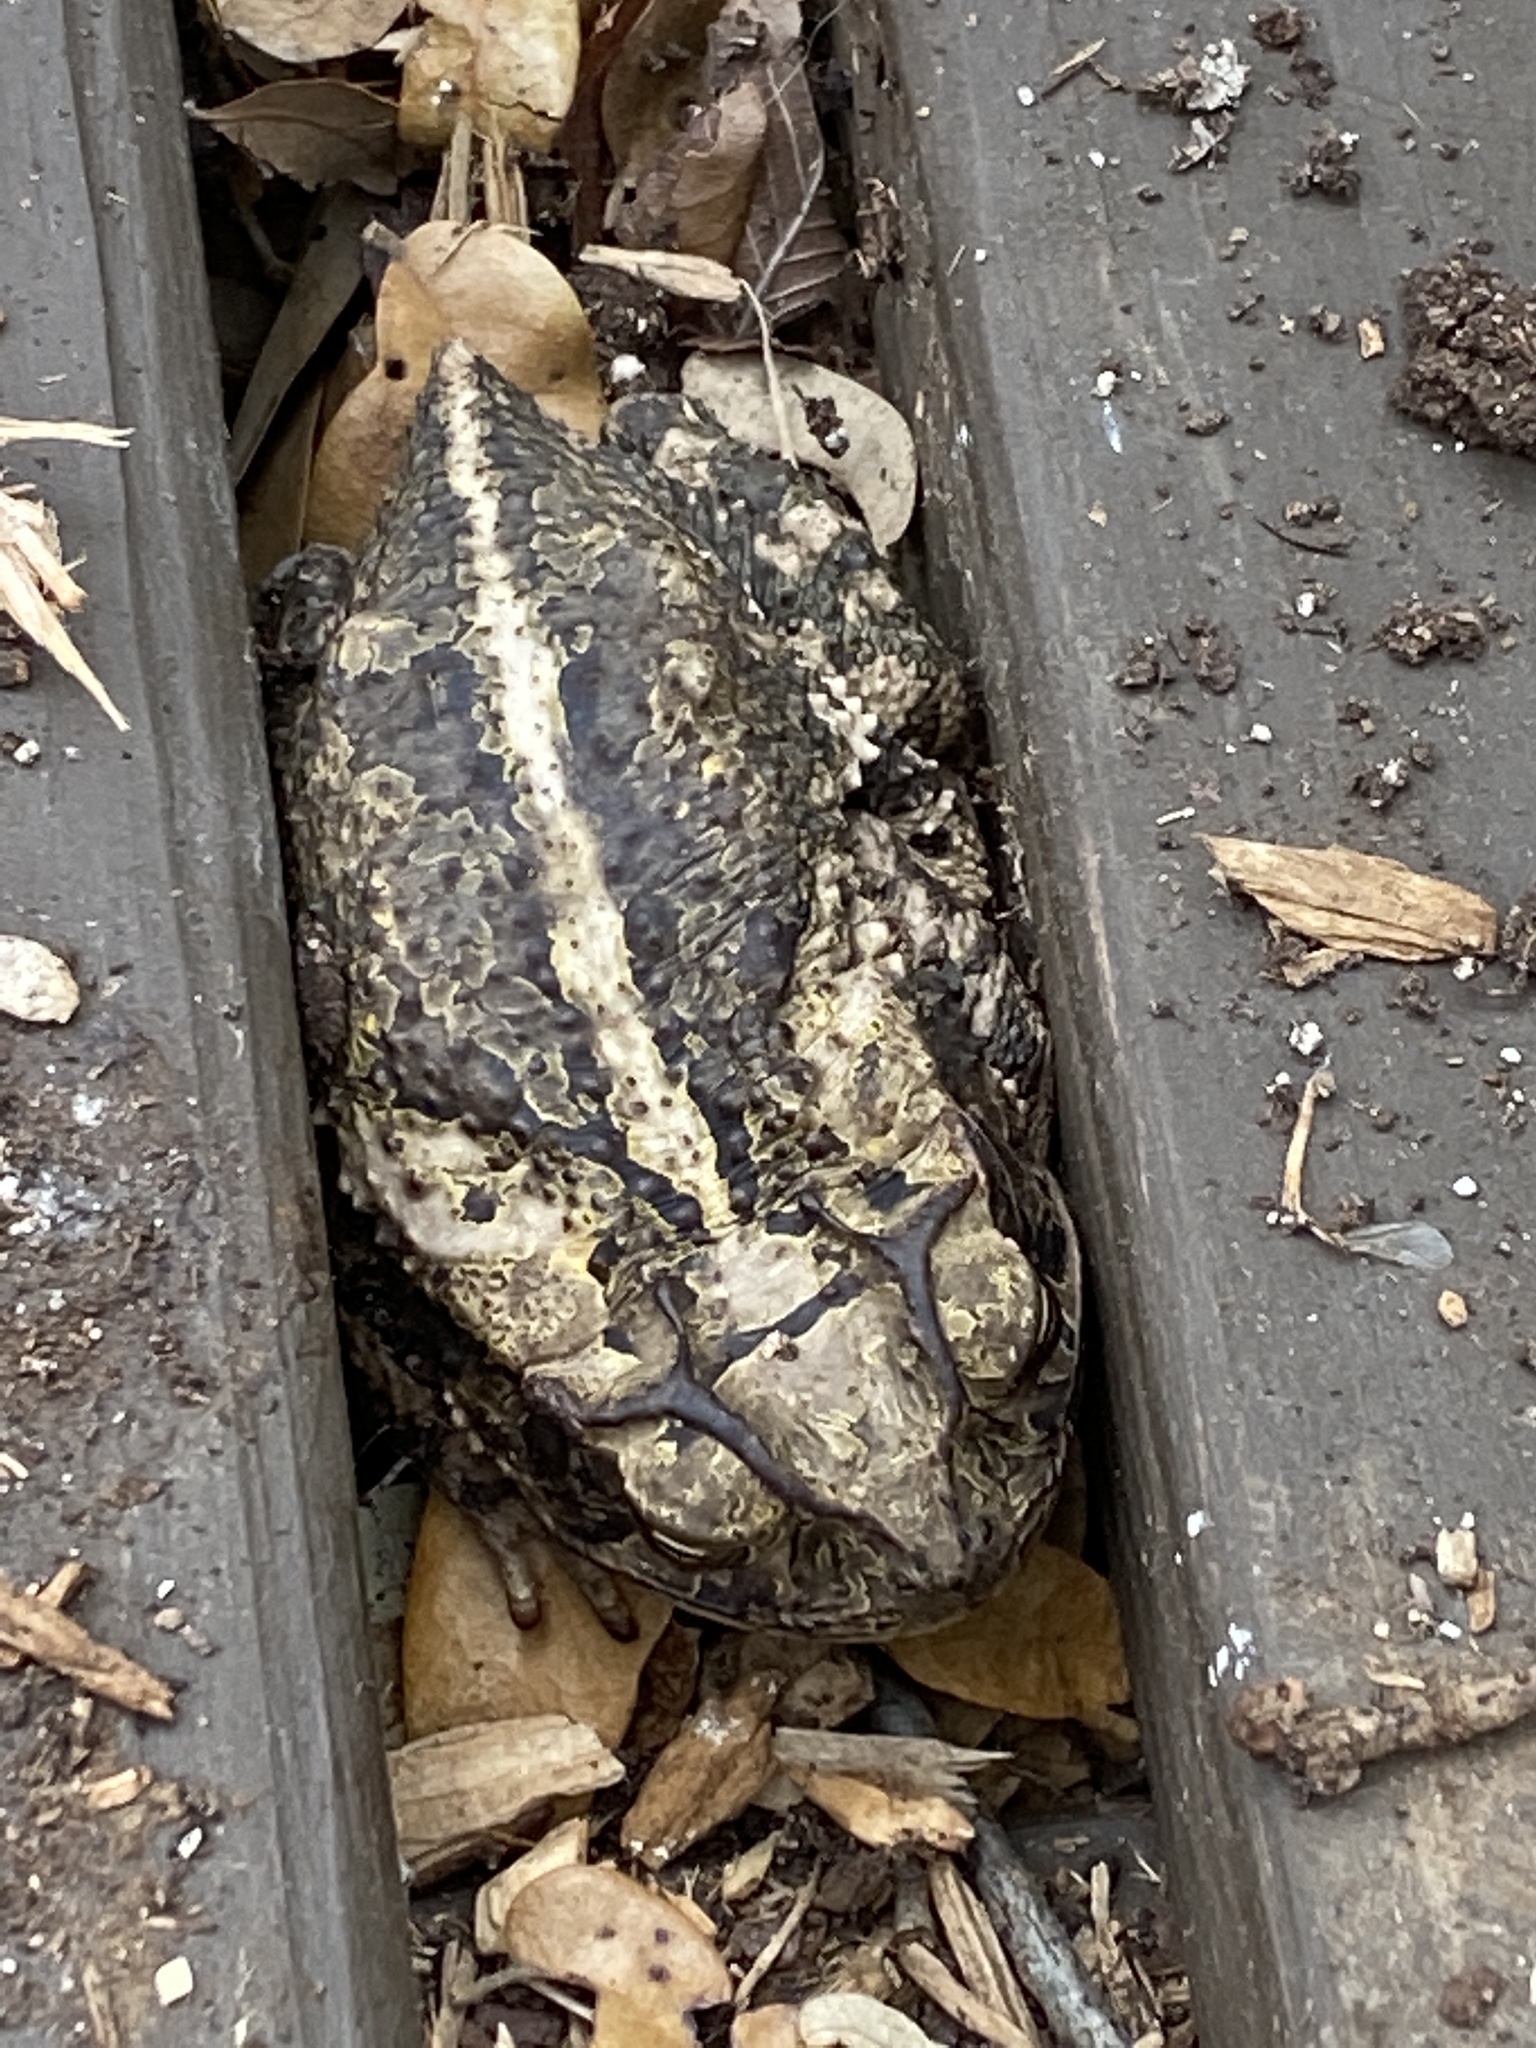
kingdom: Animalia
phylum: Chordata
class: Amphibia
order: Anura
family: Bufonidae
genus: Incilius
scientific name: Incilius nebulifer
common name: Gulf coast toad
